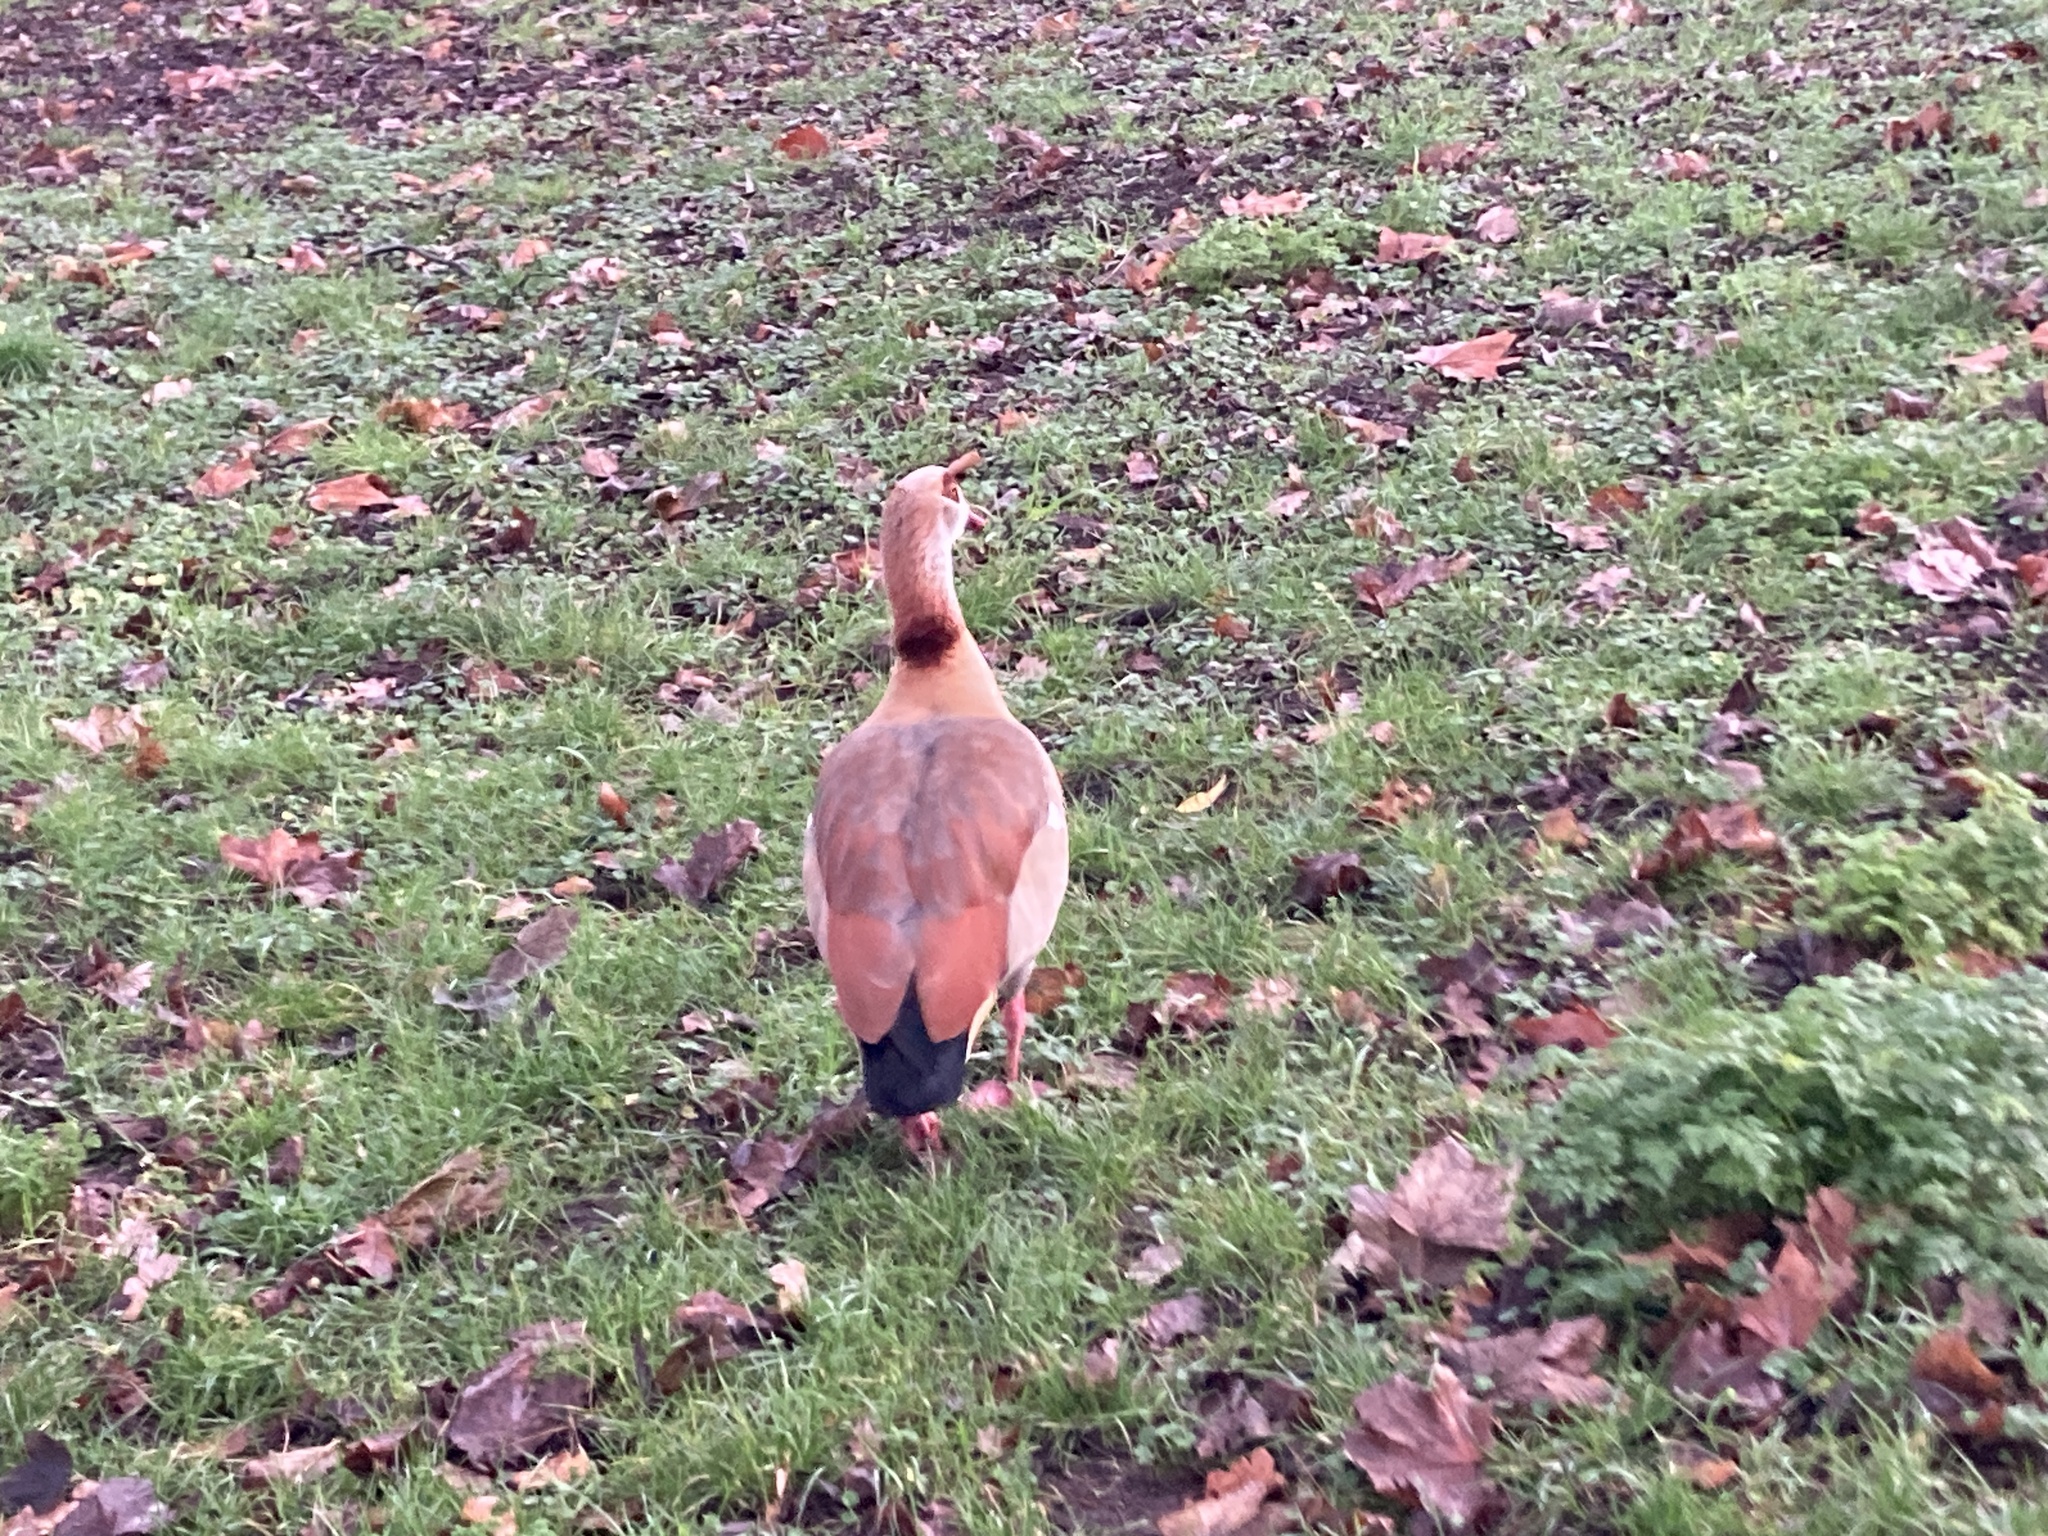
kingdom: Animalia
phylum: Chordata
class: Aves
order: Anseriformes
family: Anatidae
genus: Alopochen
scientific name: Alopochen aegyptiaca
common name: Egyptian goose
